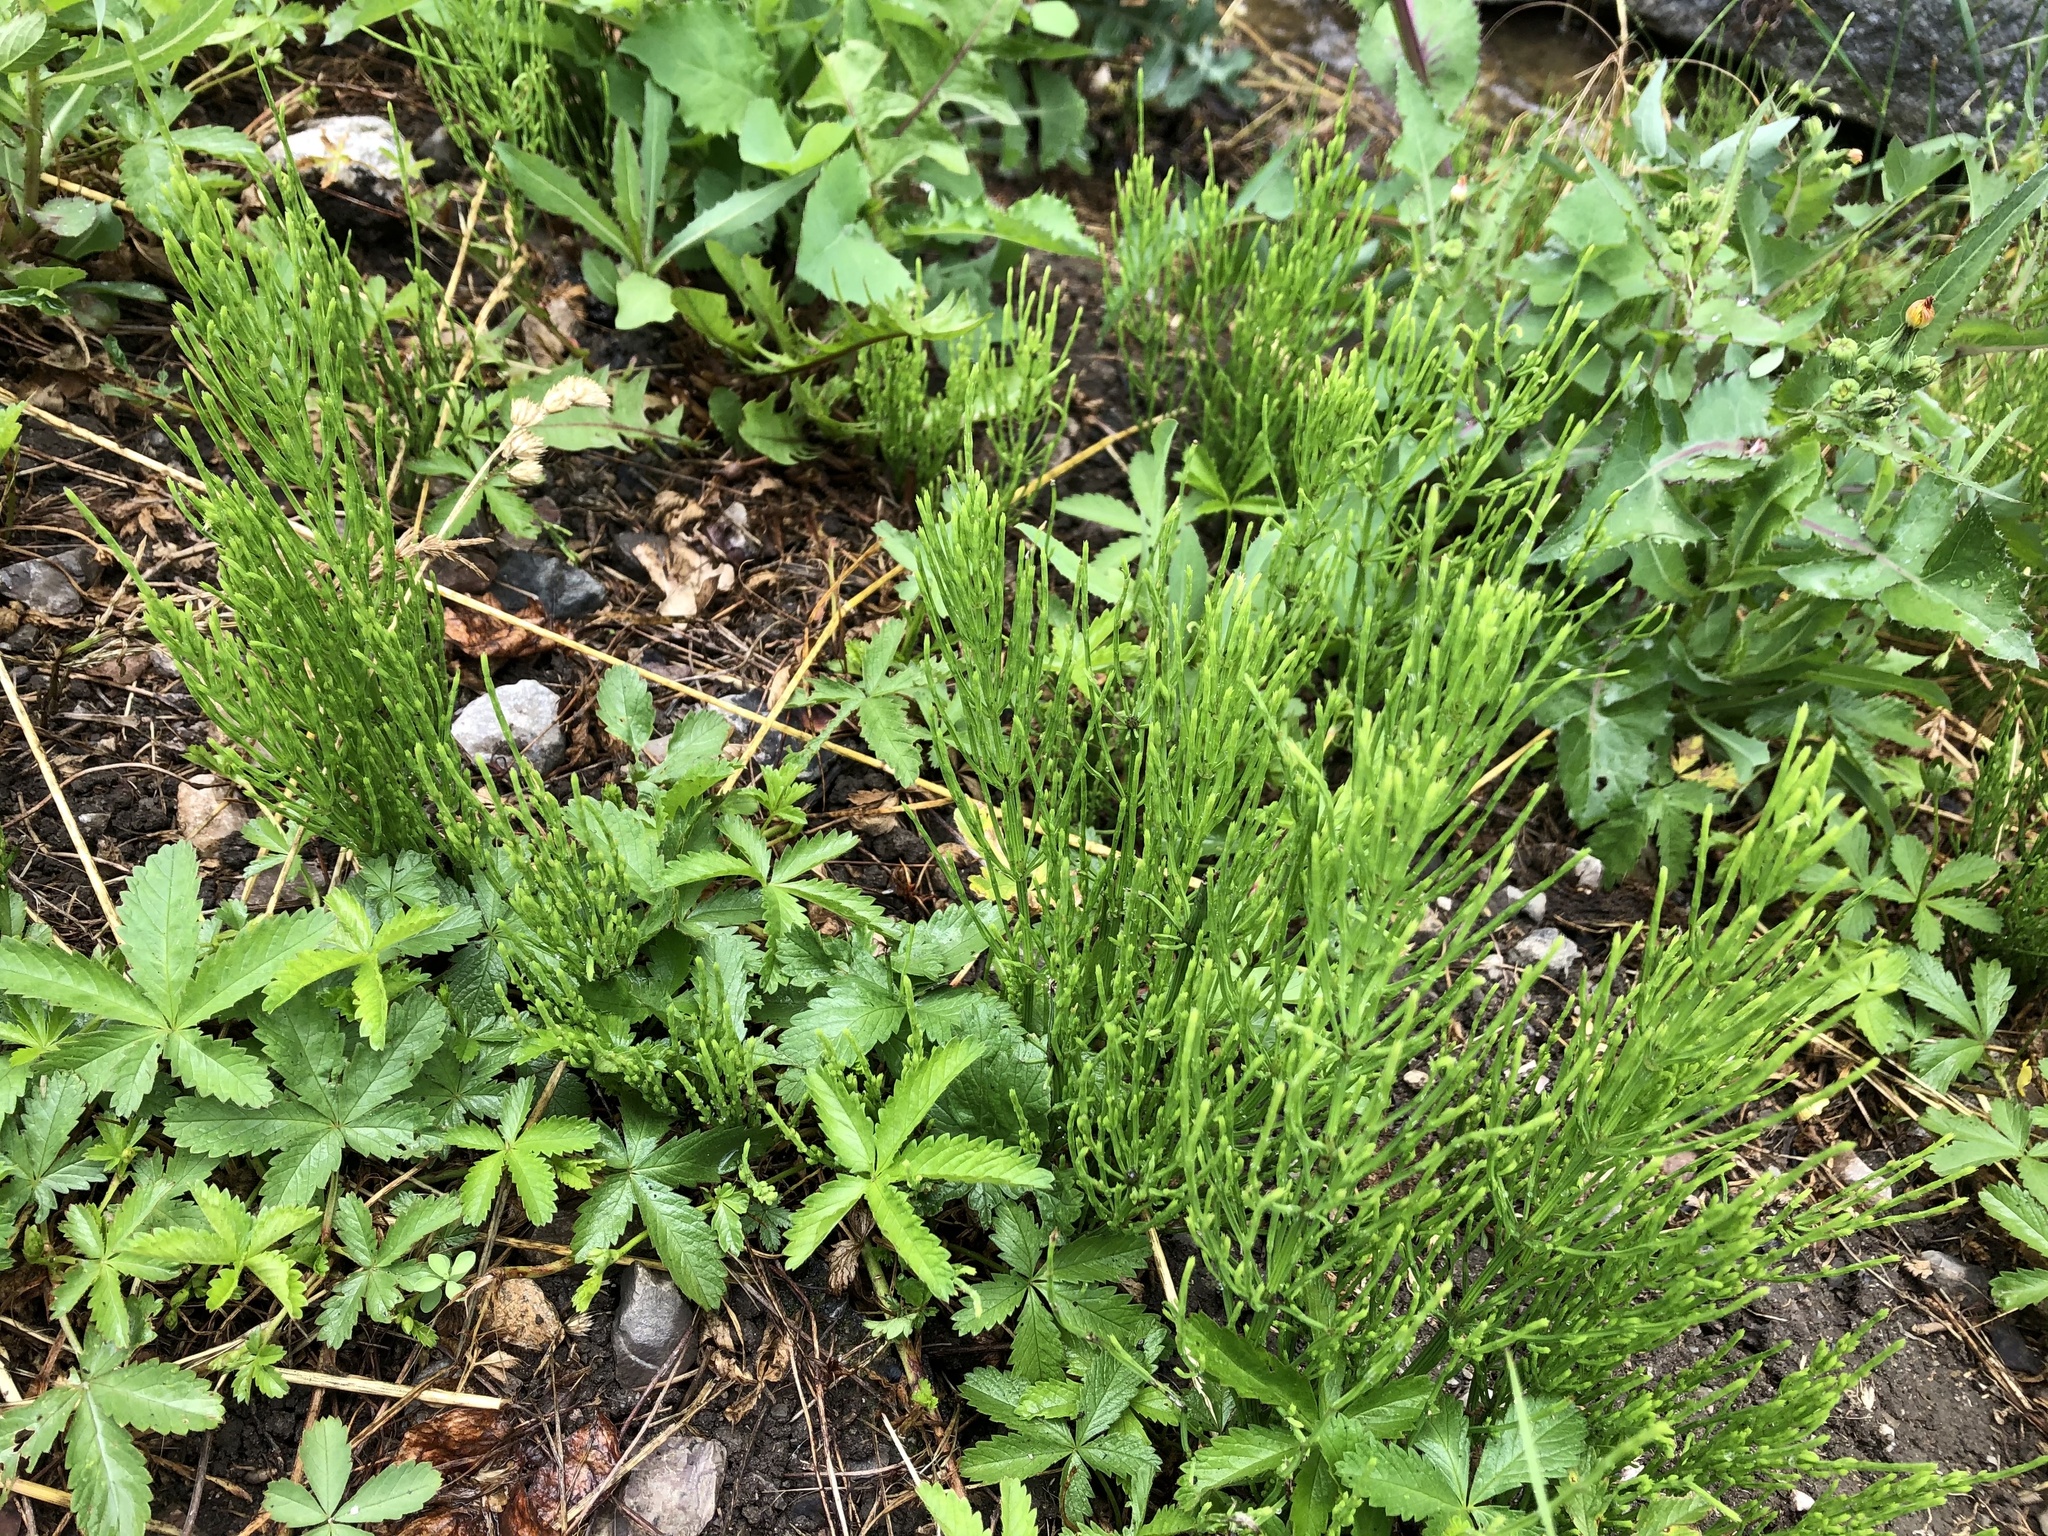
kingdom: Plantae
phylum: Tracheophyta
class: Polypodiopsida
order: Equisetales
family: Equisetaceae
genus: Equisetum
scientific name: Equisetum arvense
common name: Field horsetail
